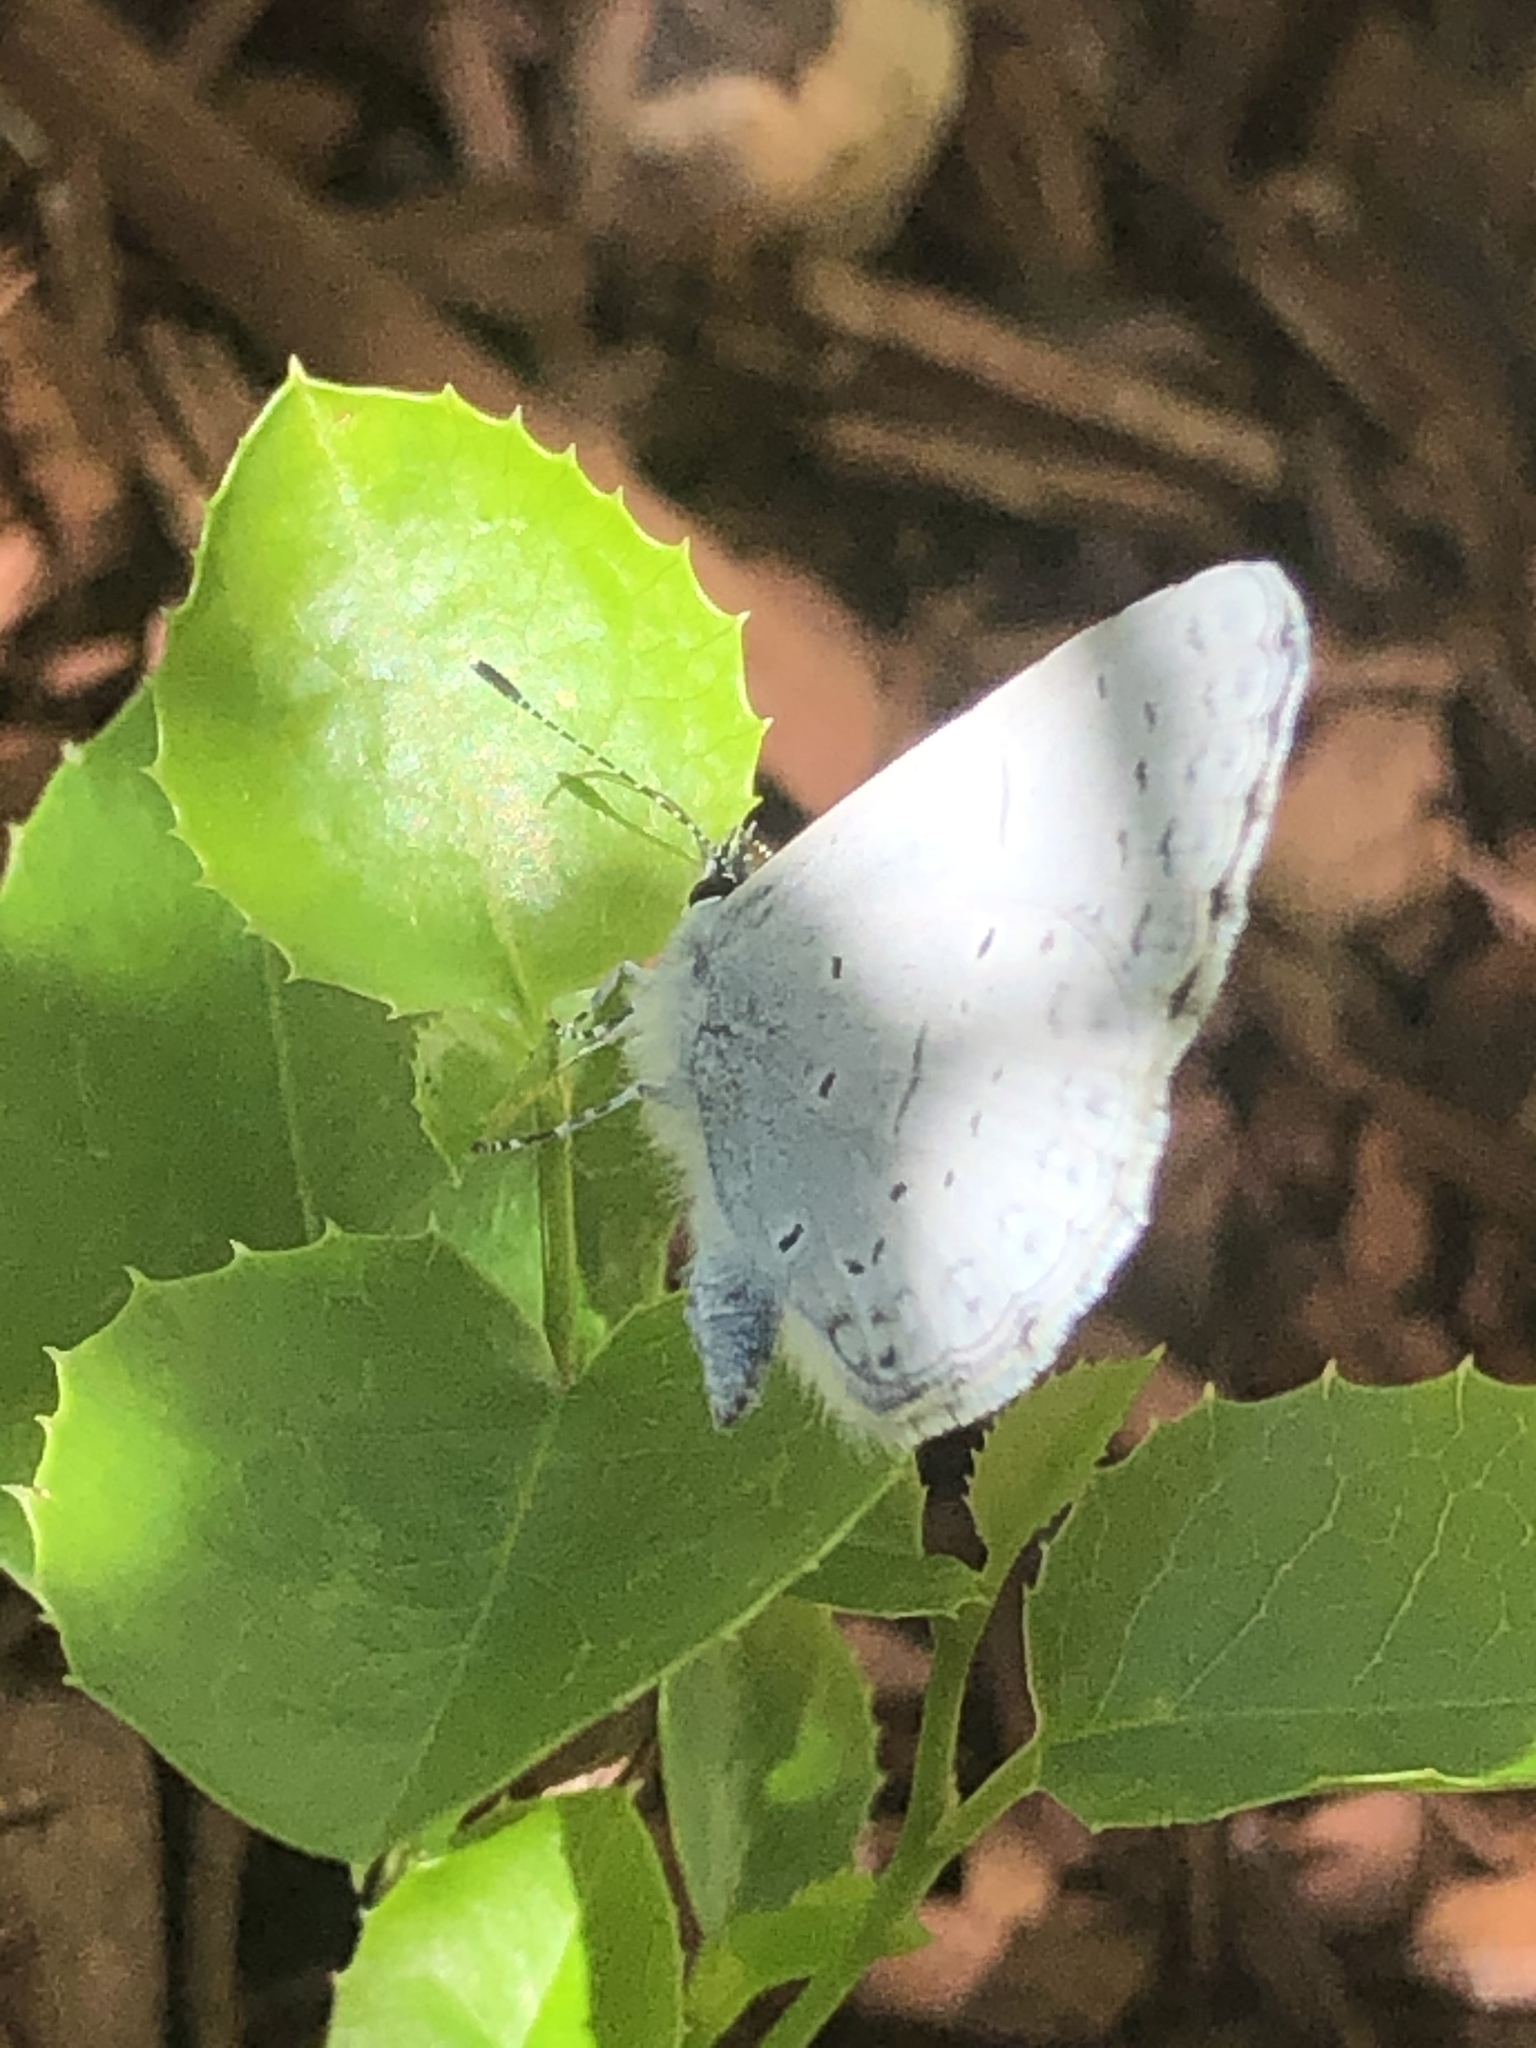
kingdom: Animalia
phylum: Arthropoda
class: Insecta
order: Lepidoptera
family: Lycaenidae
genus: Celastrina
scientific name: Celastrina ladon
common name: Spring azure
